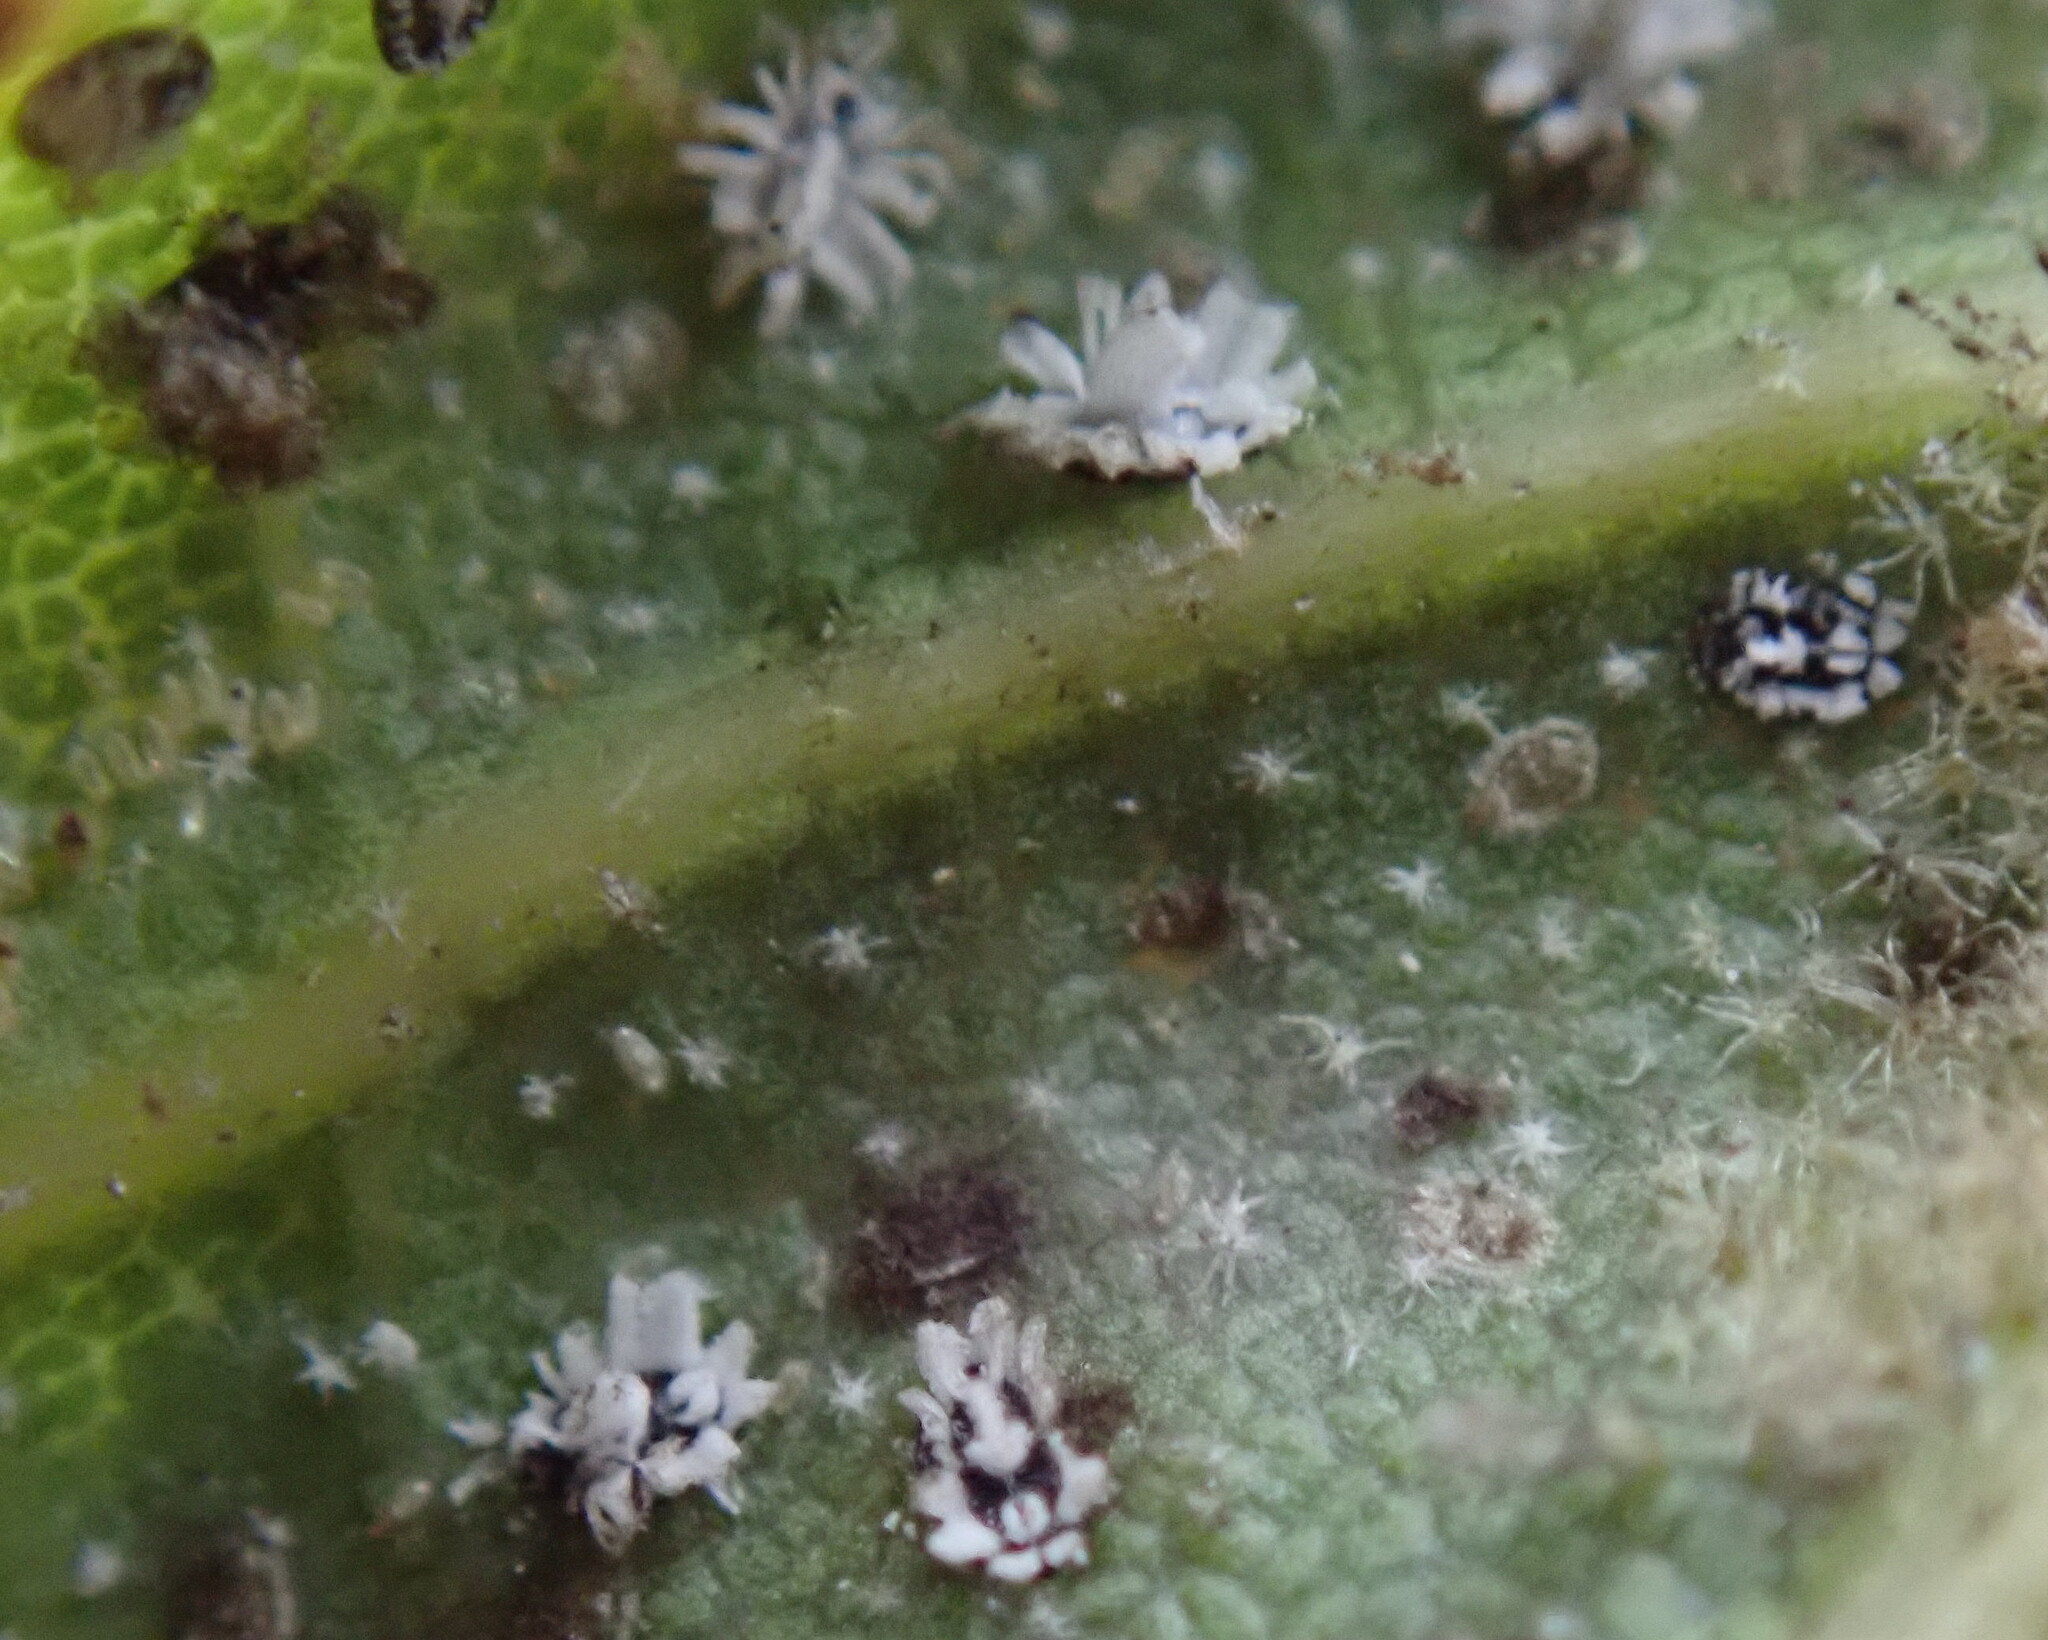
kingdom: Animalia
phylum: Arthropoda
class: Insecta
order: Hemiptera
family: Aleyrodidae
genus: Aleuroplatus
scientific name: Aleuroplatus coronata
